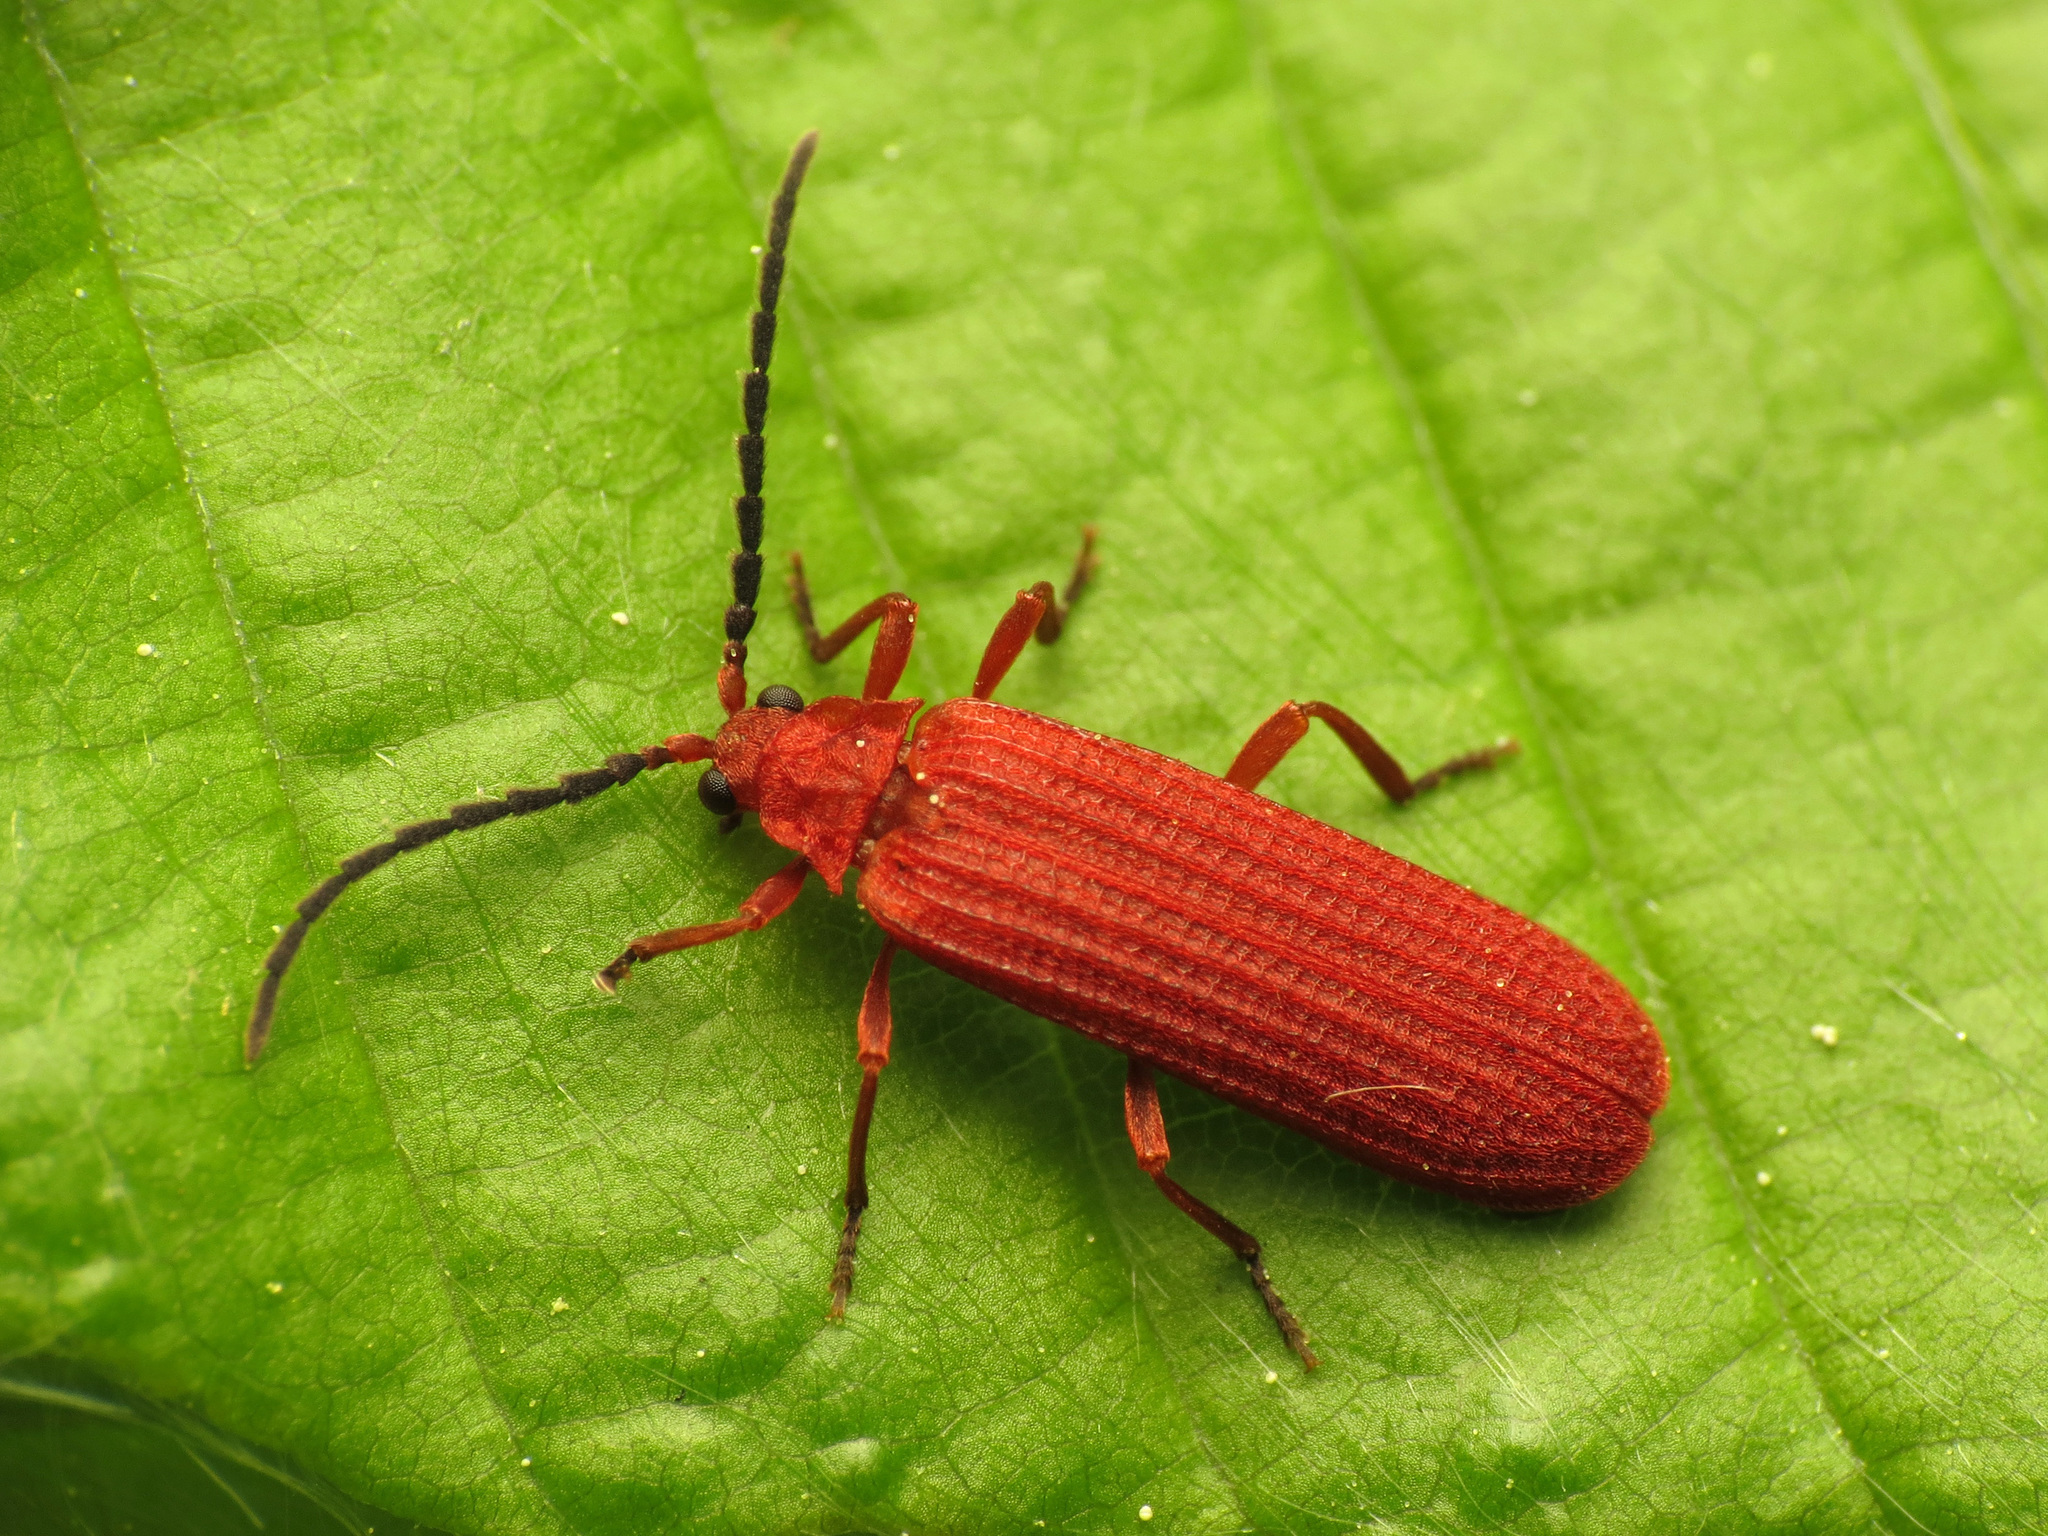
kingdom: Animalia
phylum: Arthropoda
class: Insecta
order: Coleoptera
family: Lycidae
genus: Punicealis
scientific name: Punicealis
